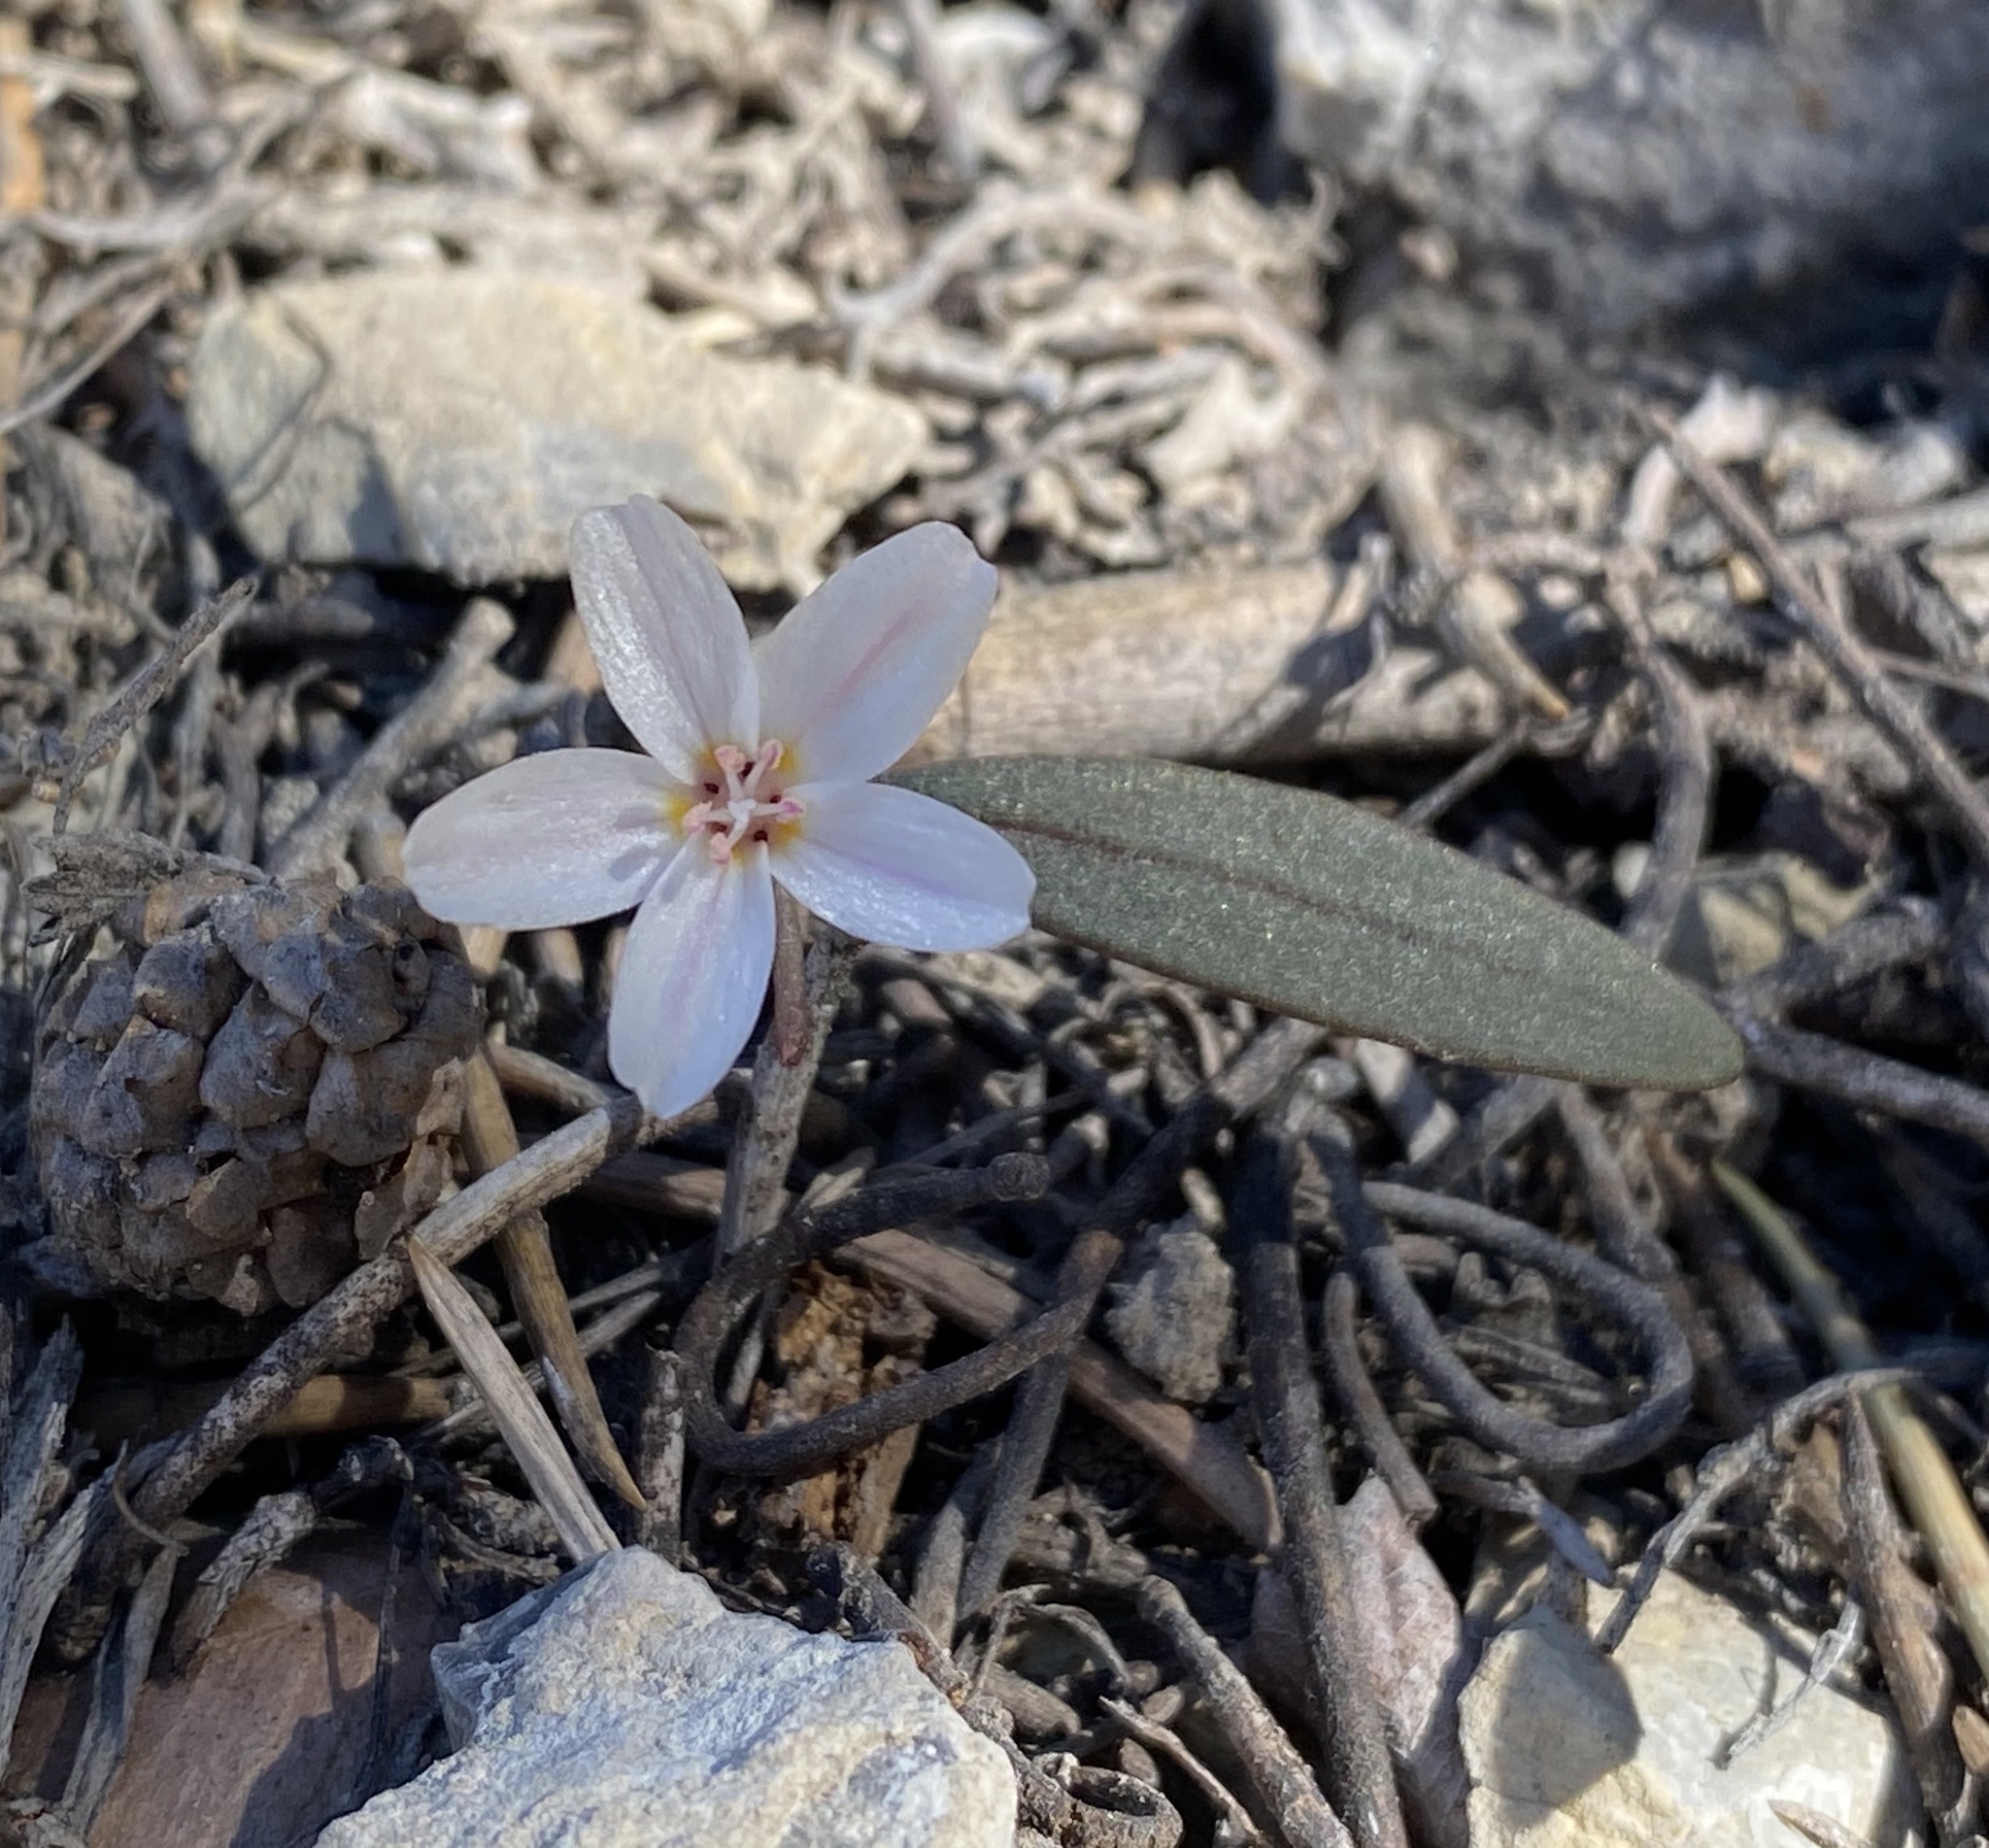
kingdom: Plantae
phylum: Tracheophyta
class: Magnoliopsida
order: Caryophyllales
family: Montiaceae
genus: Claytonia
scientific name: Claytonia panamintensis
